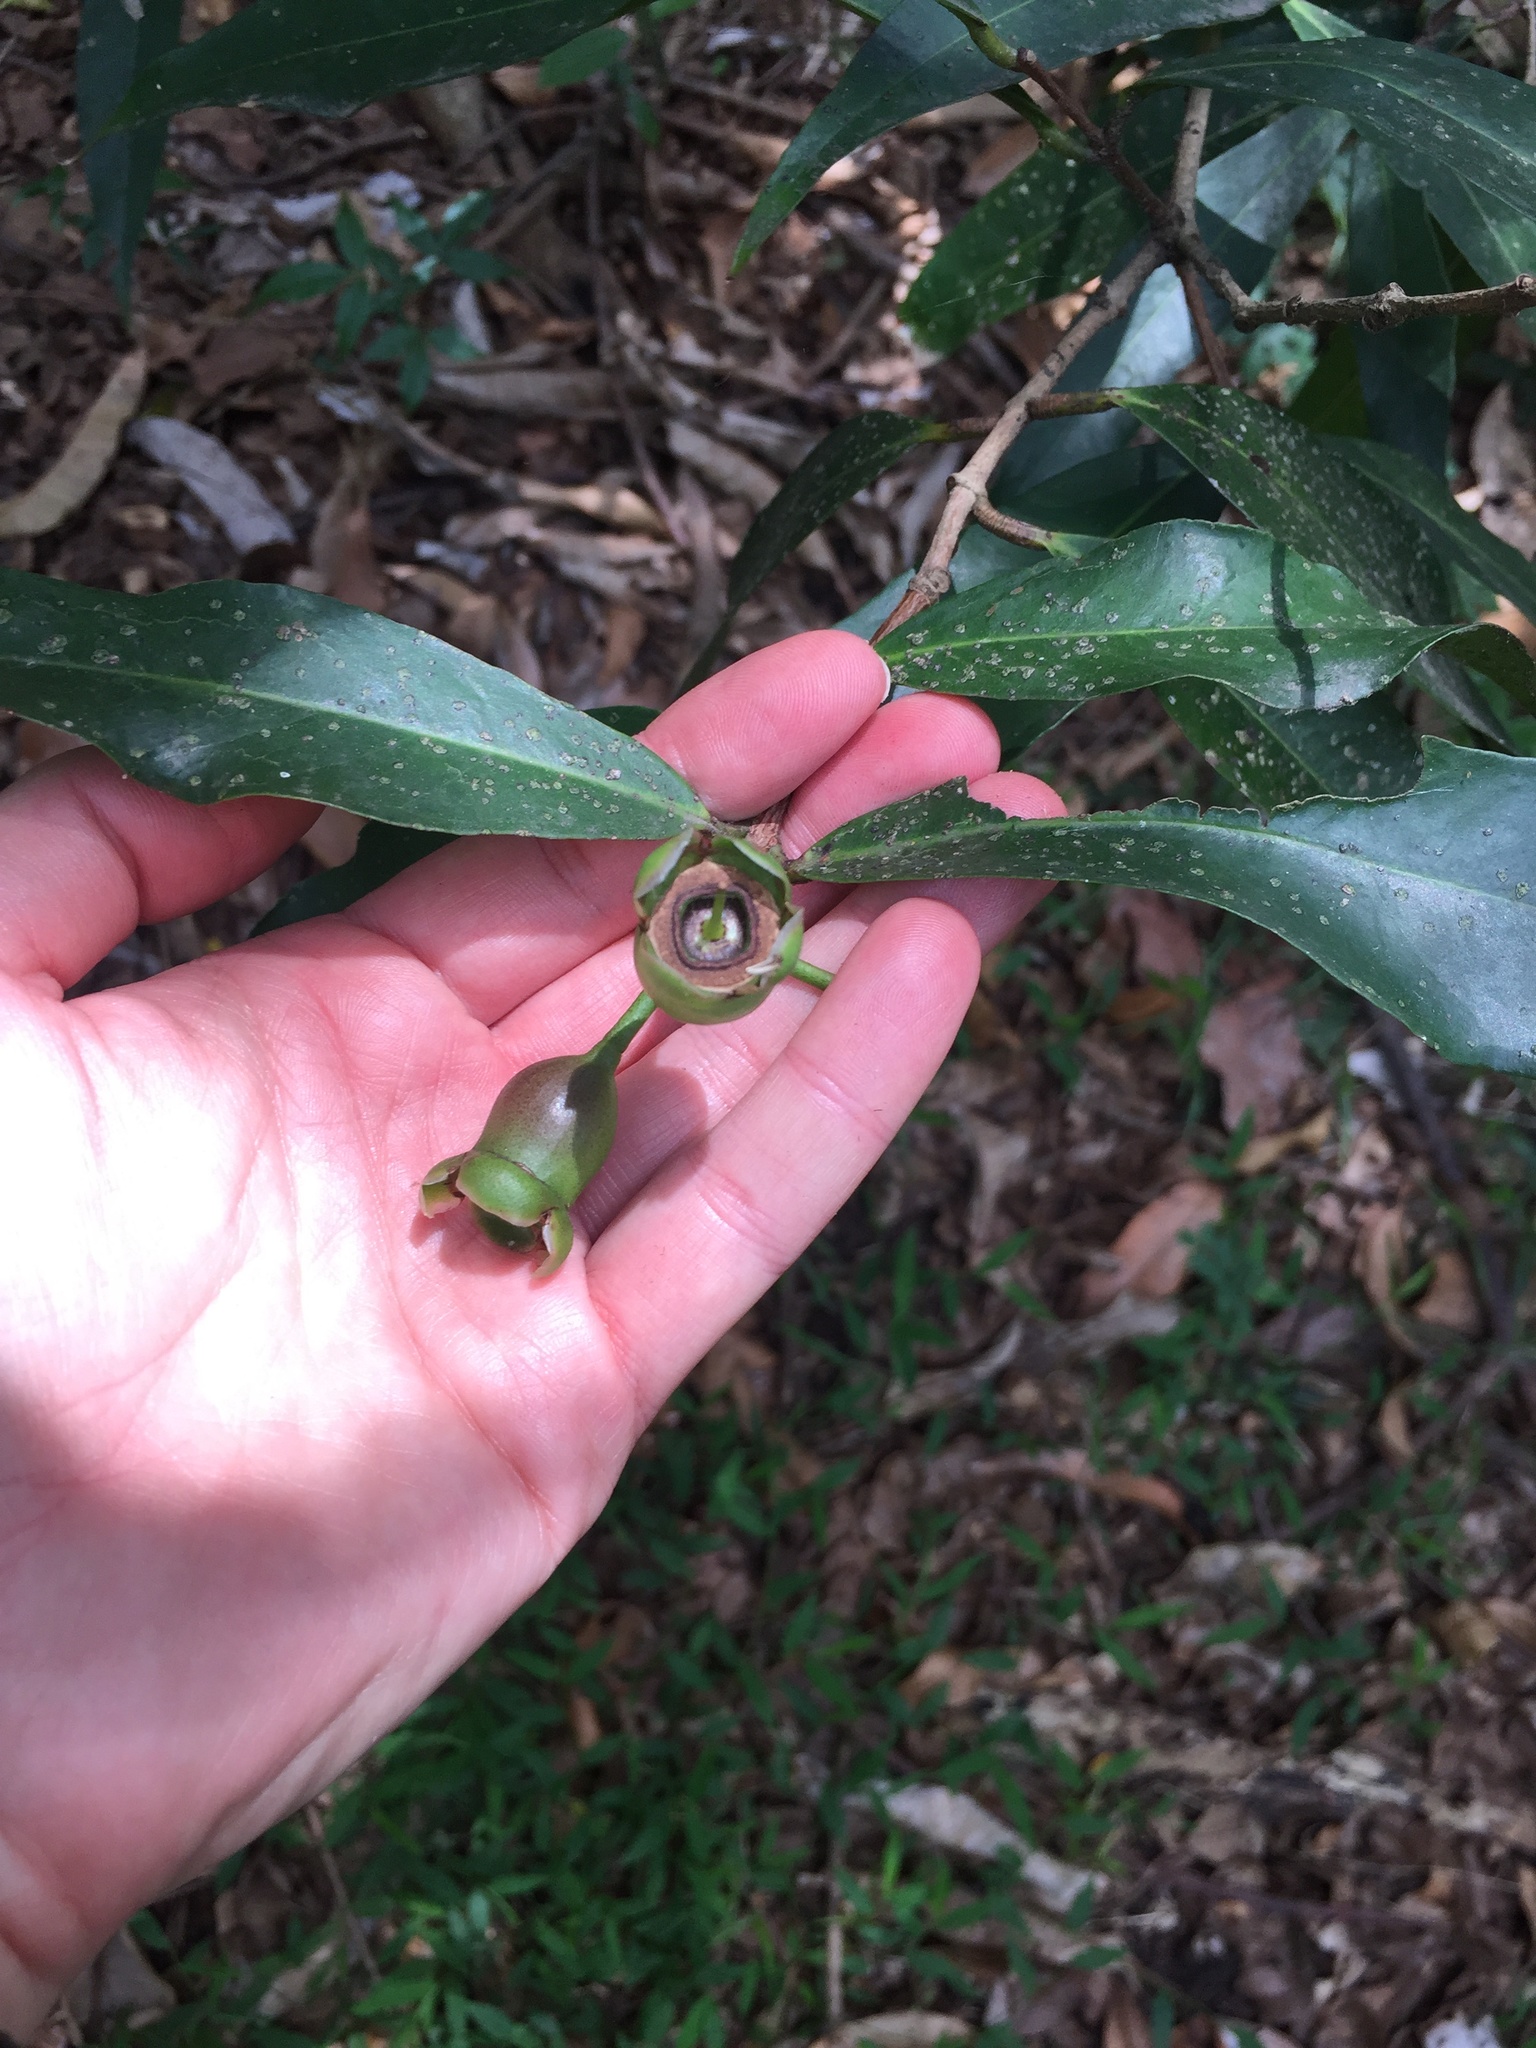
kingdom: Plantae
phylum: Tracheophyta
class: Magnoliopsida
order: Myrtales
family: Myrtaceae
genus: Syzygium
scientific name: Syzygium jambos
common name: Malabar plum
